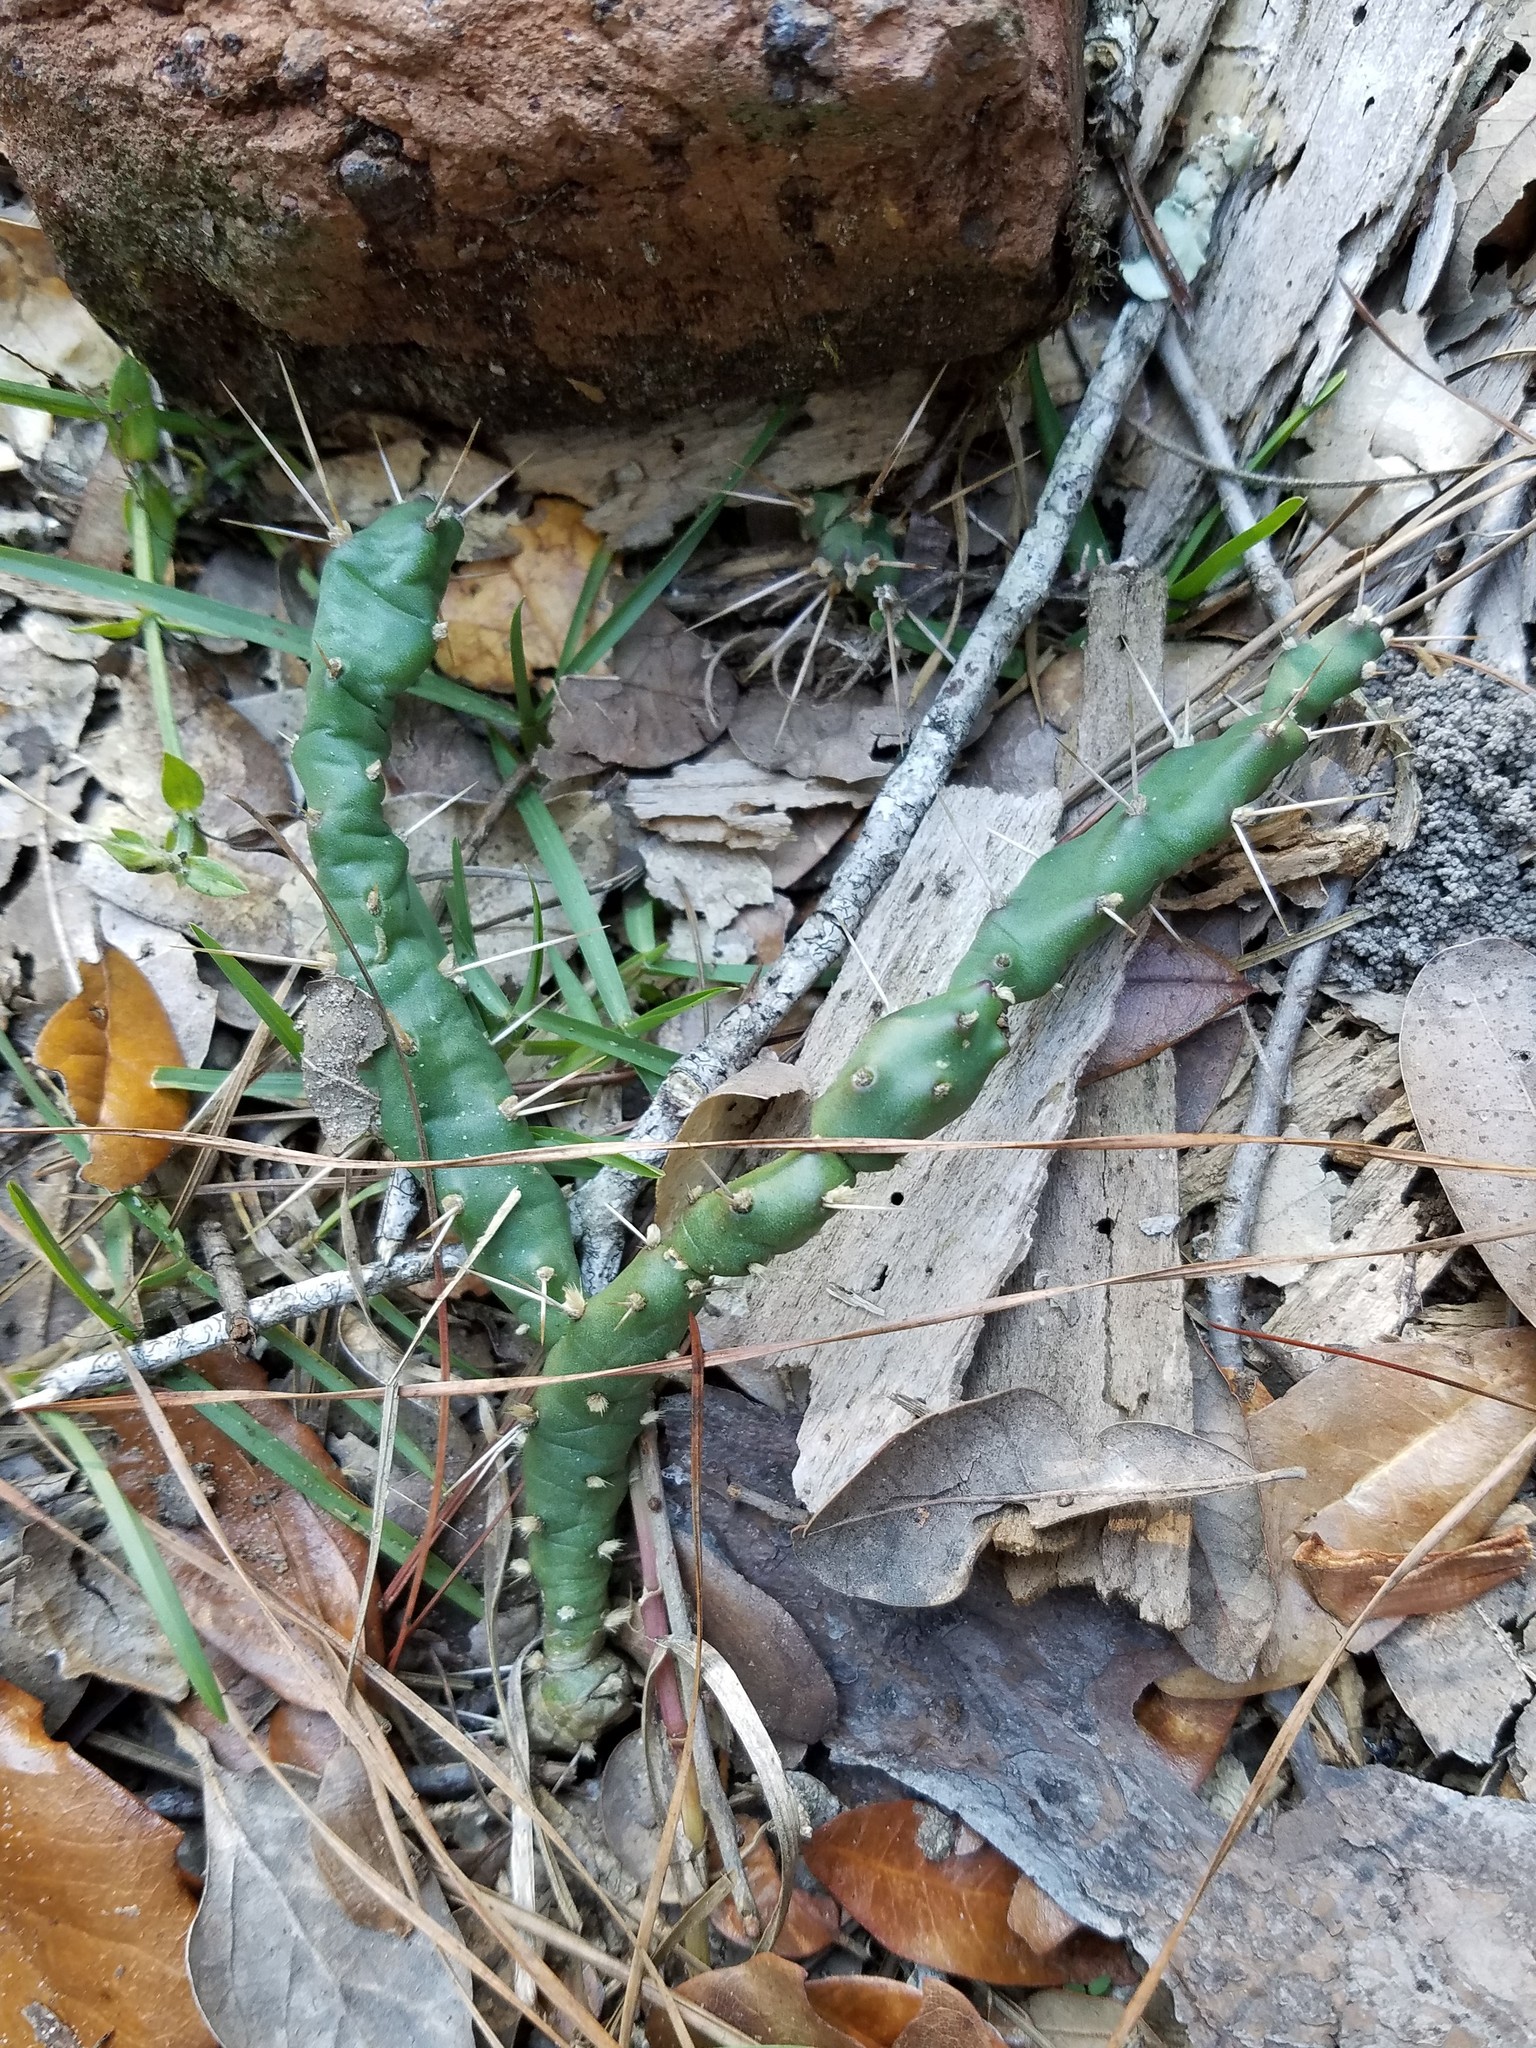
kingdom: Plantae
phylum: Tracheophyta
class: Magnoliopsida
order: Caryophyllales
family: Cactaceae
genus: Opuntia
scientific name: Opuntia drummondii
